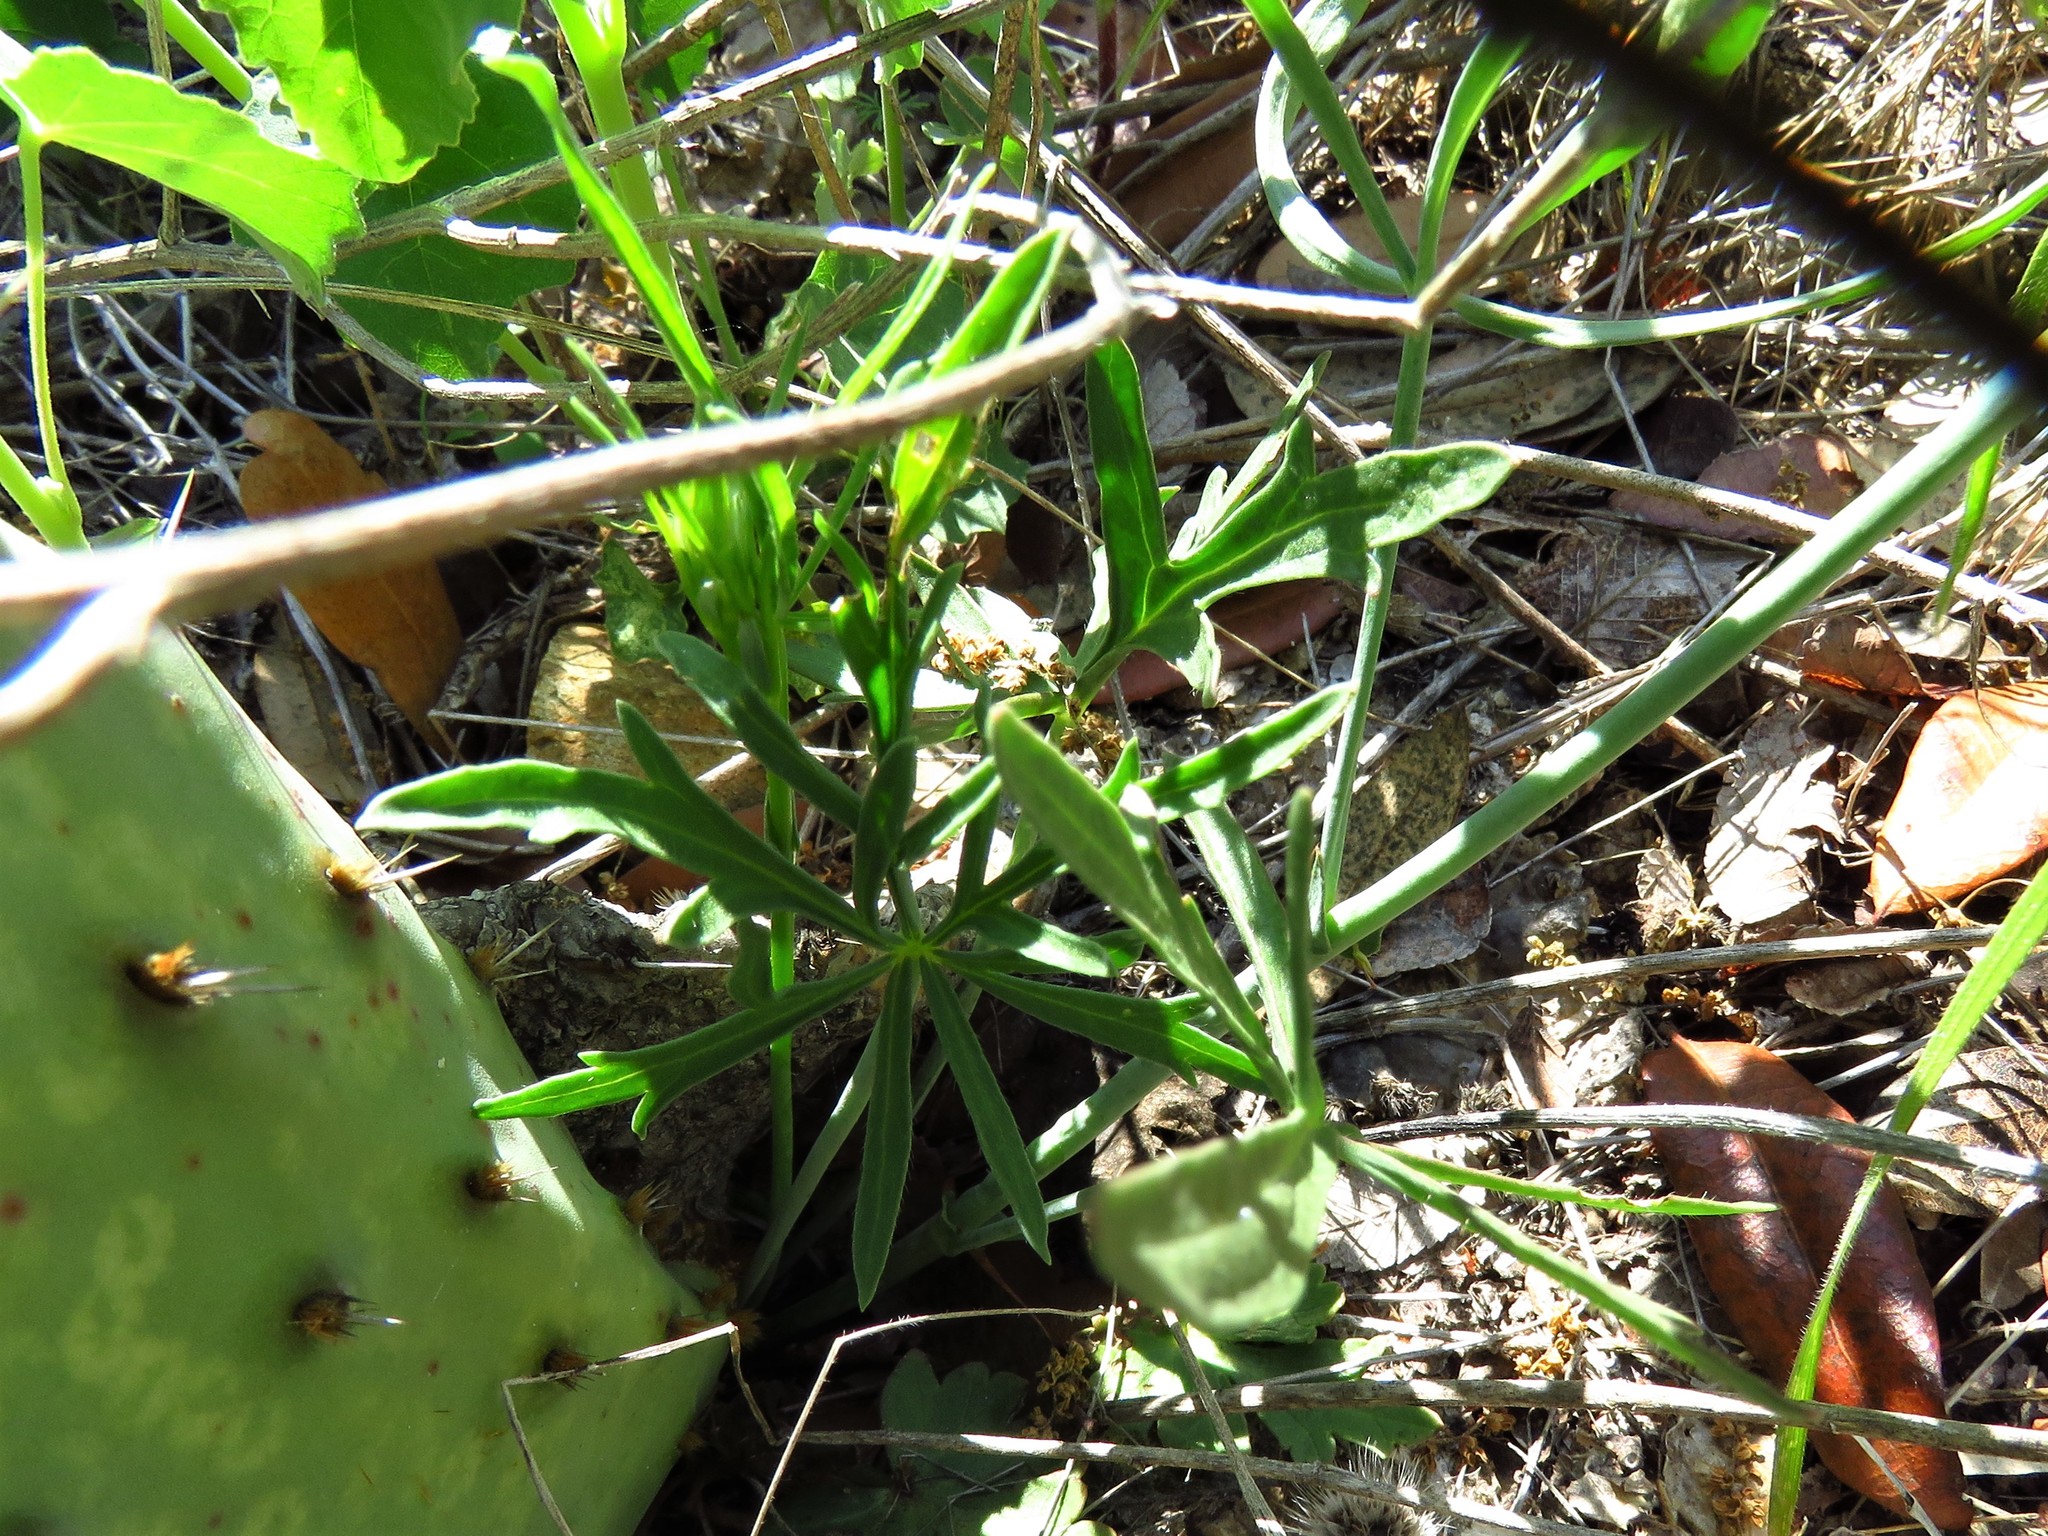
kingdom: Plantae
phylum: Tracheophyta
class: Magnoliopsida
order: Malvales
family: Malvaceae
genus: Callirhoe
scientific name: Callirhoe pedata
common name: Finger poppy-mallow
